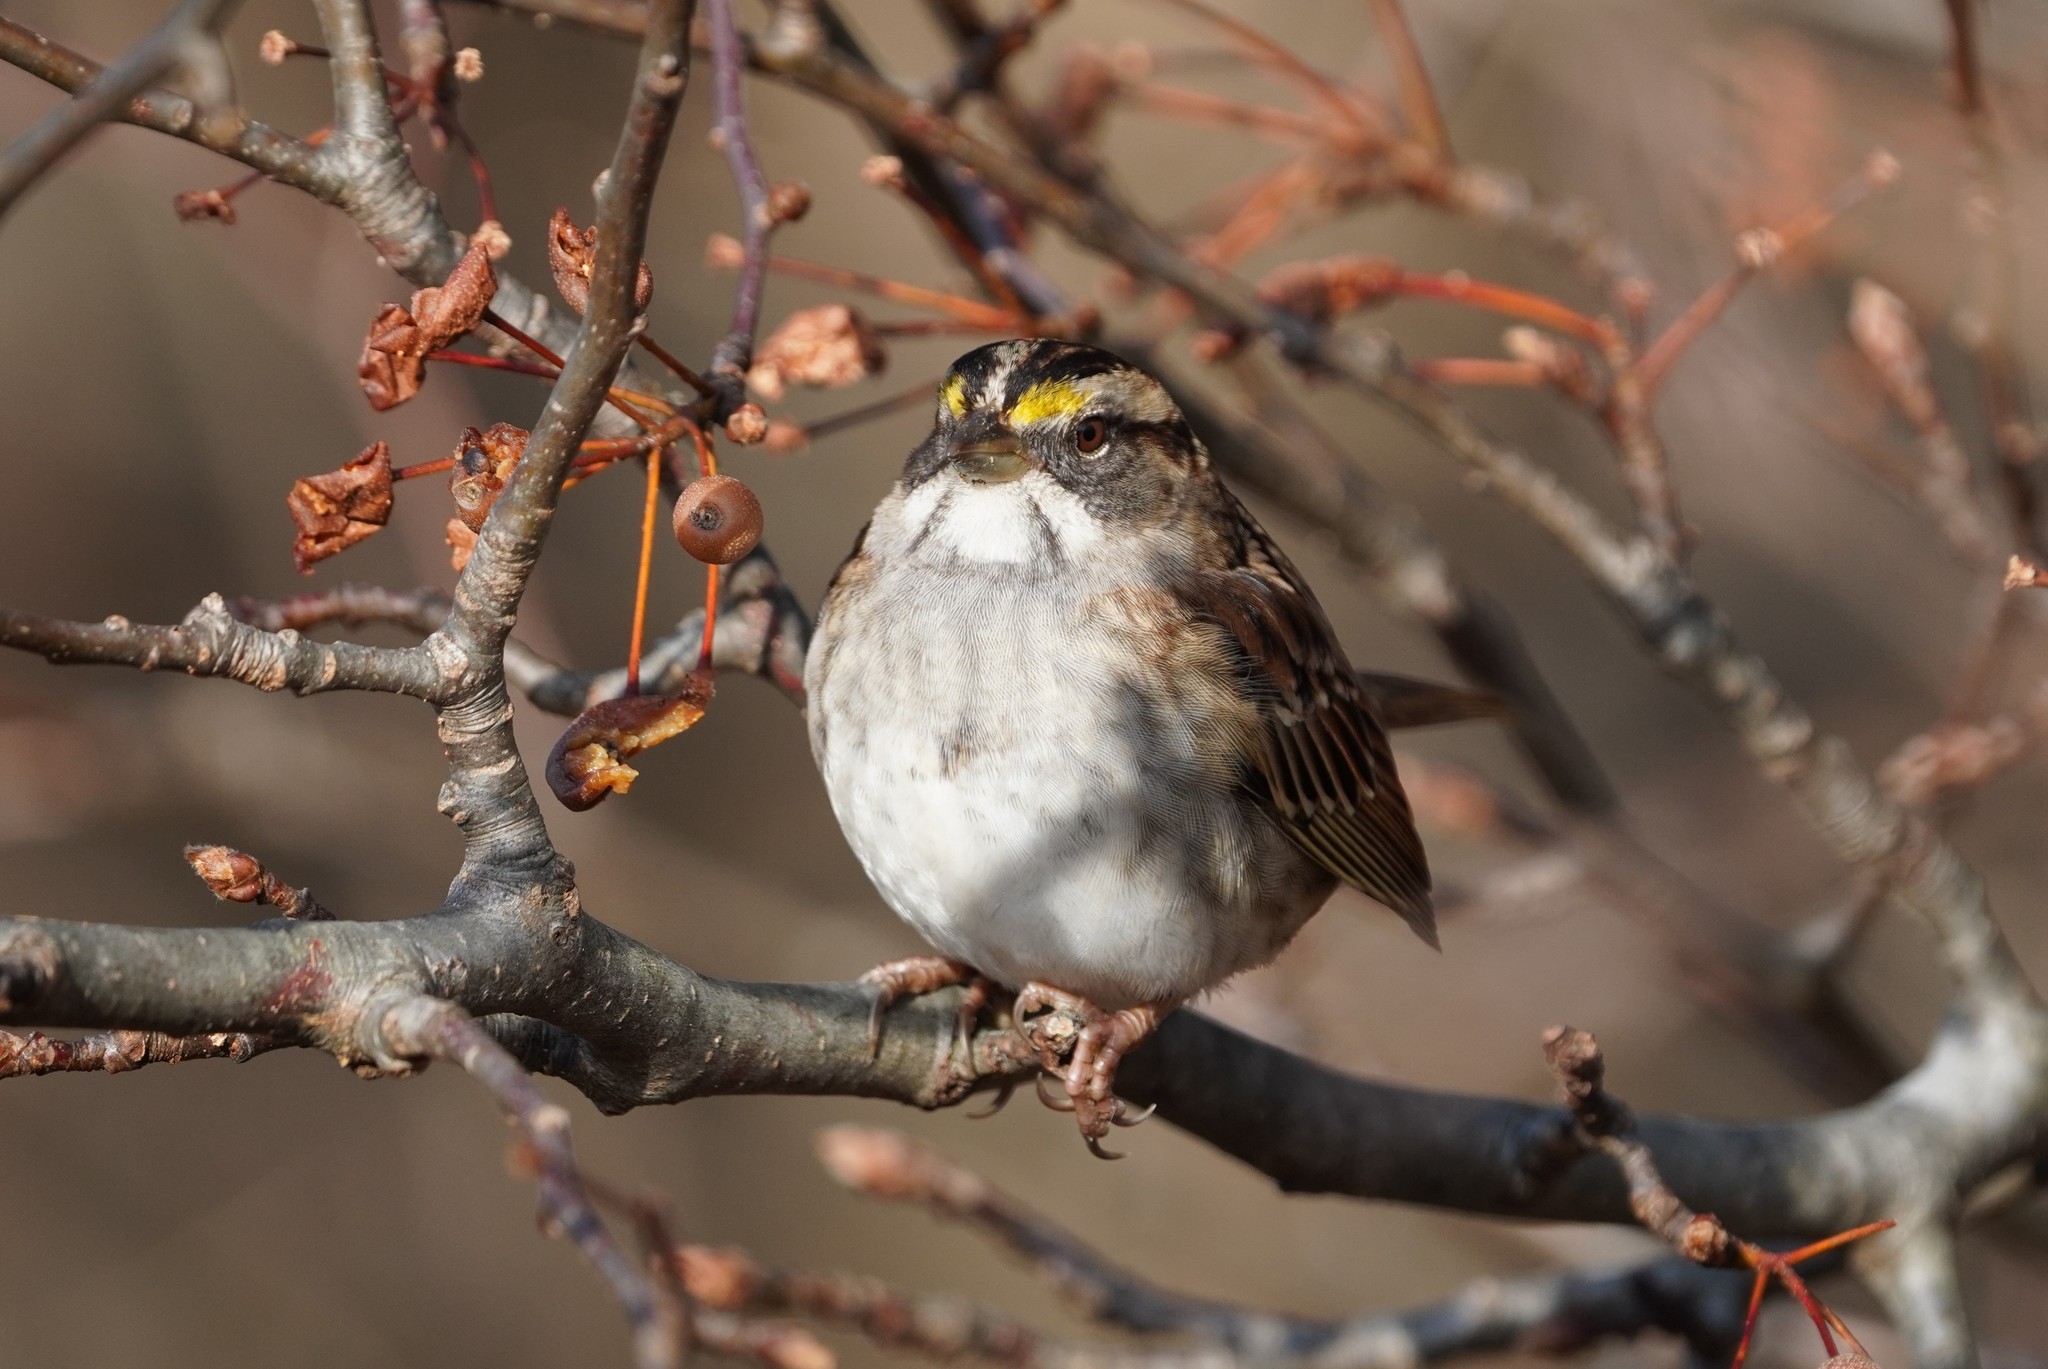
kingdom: Animalia
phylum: Chordata
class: Aves
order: Passeriformes
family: Passerellidae
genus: Zonotrichia
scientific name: Zonotrichia albicollis
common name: White-throated sparrow
